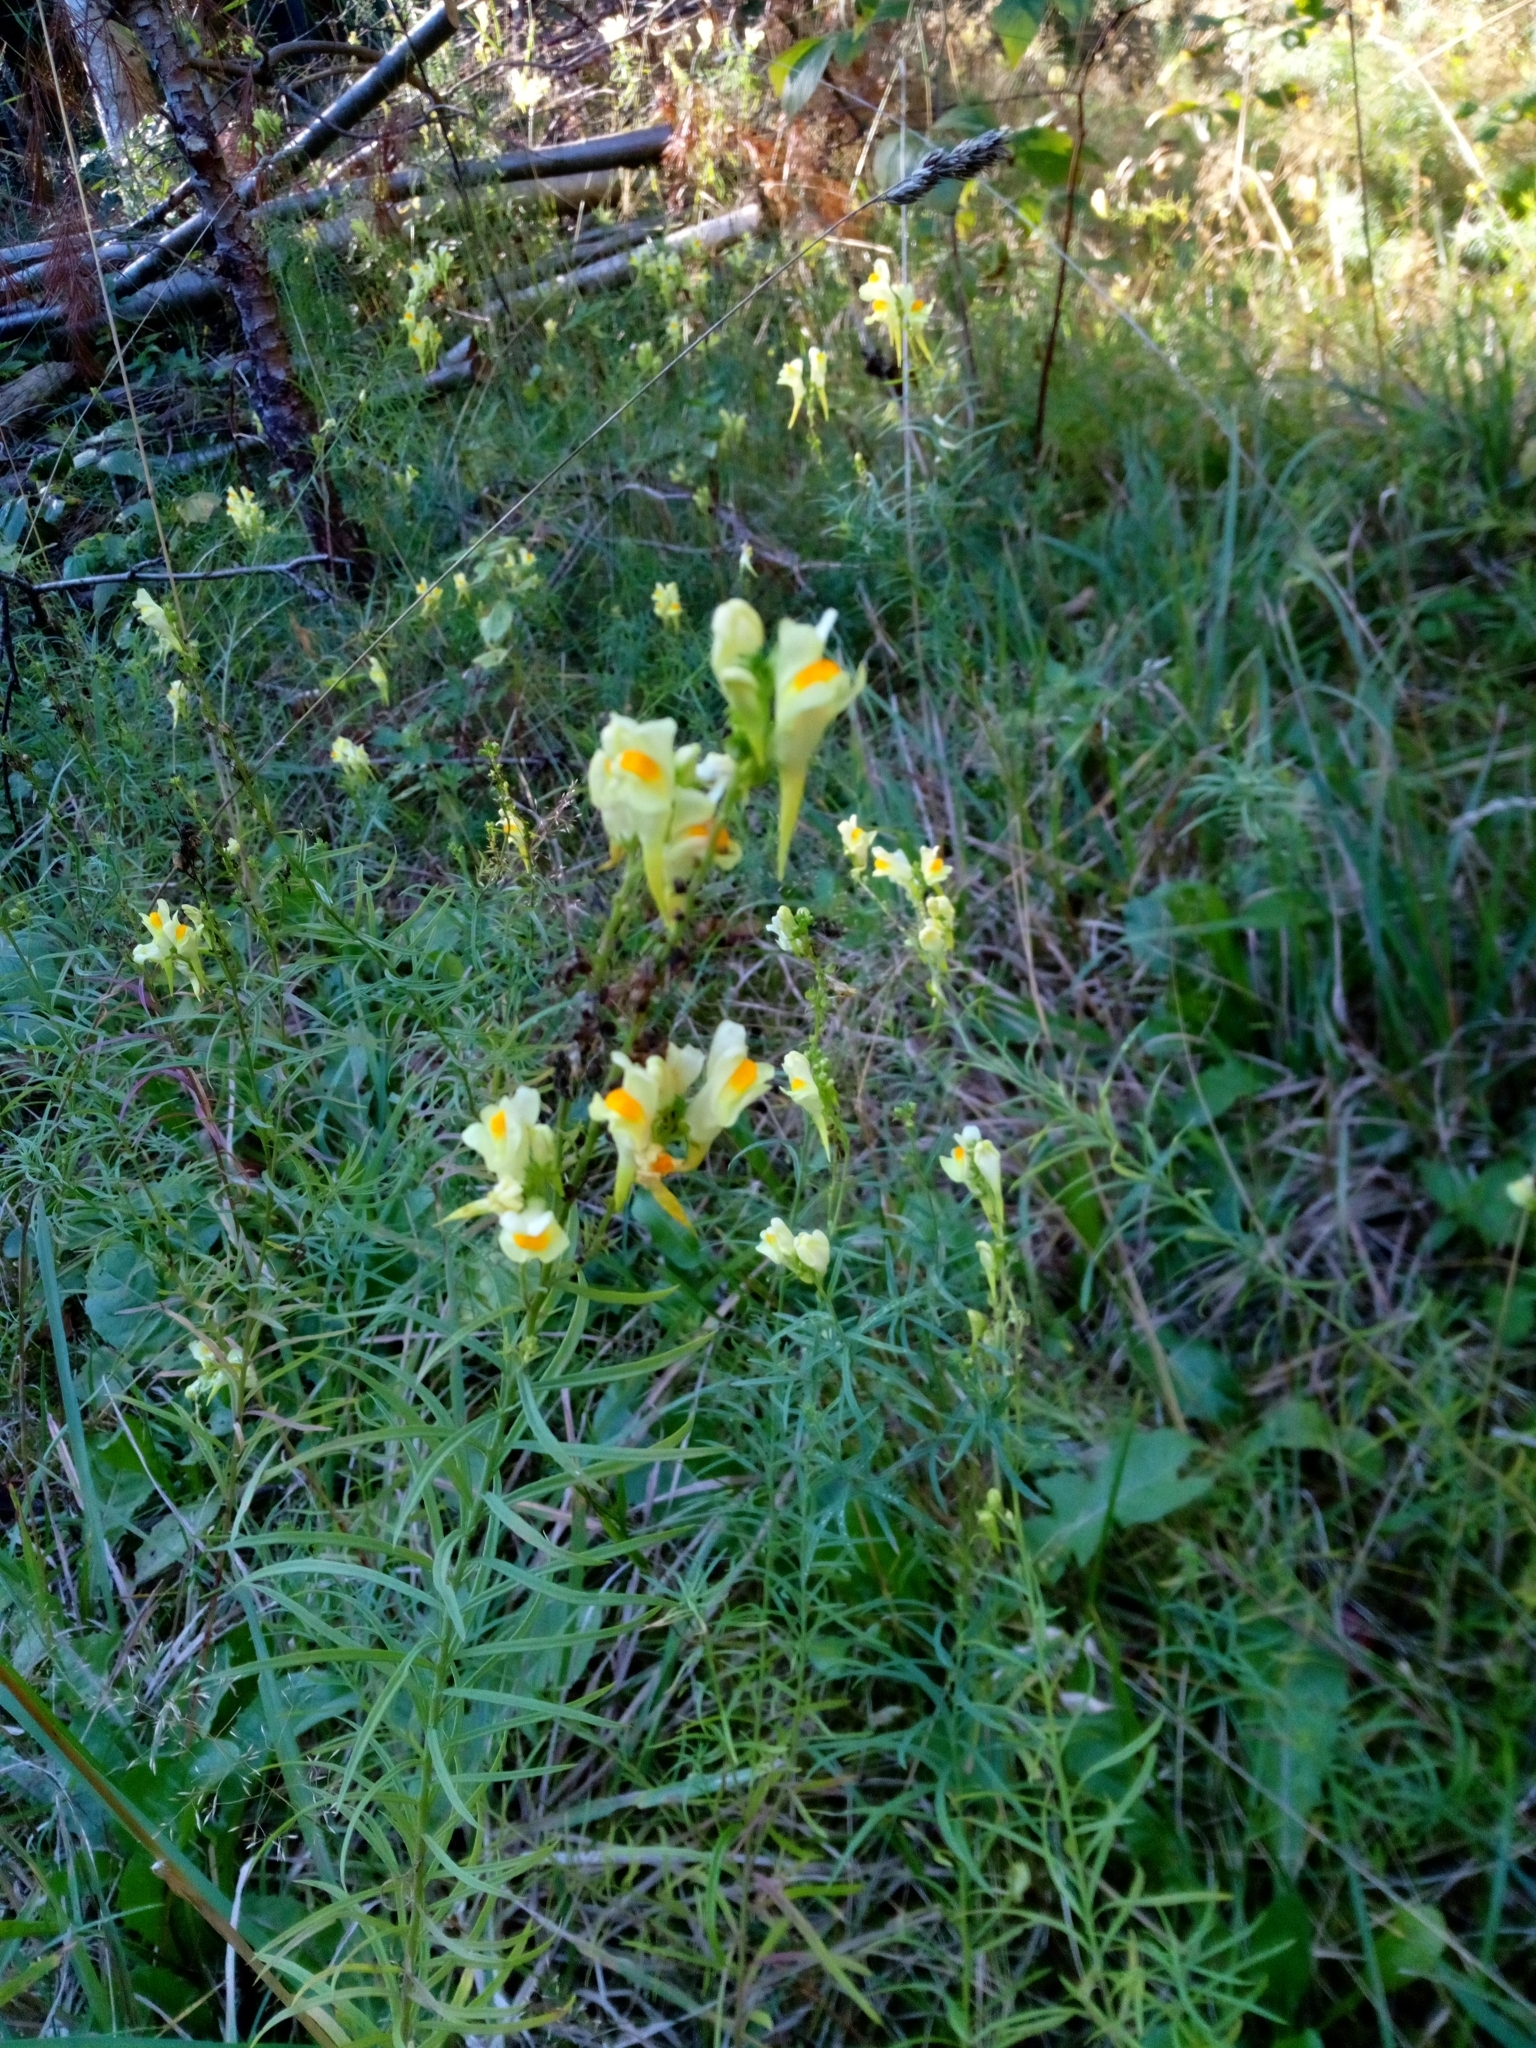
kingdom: Plantae
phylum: Tracheophyta
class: Magnoliopsida
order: Lamiales
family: Plantaginaceae
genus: Linaria
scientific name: Linaria vulgaris
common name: Butter and eggs
